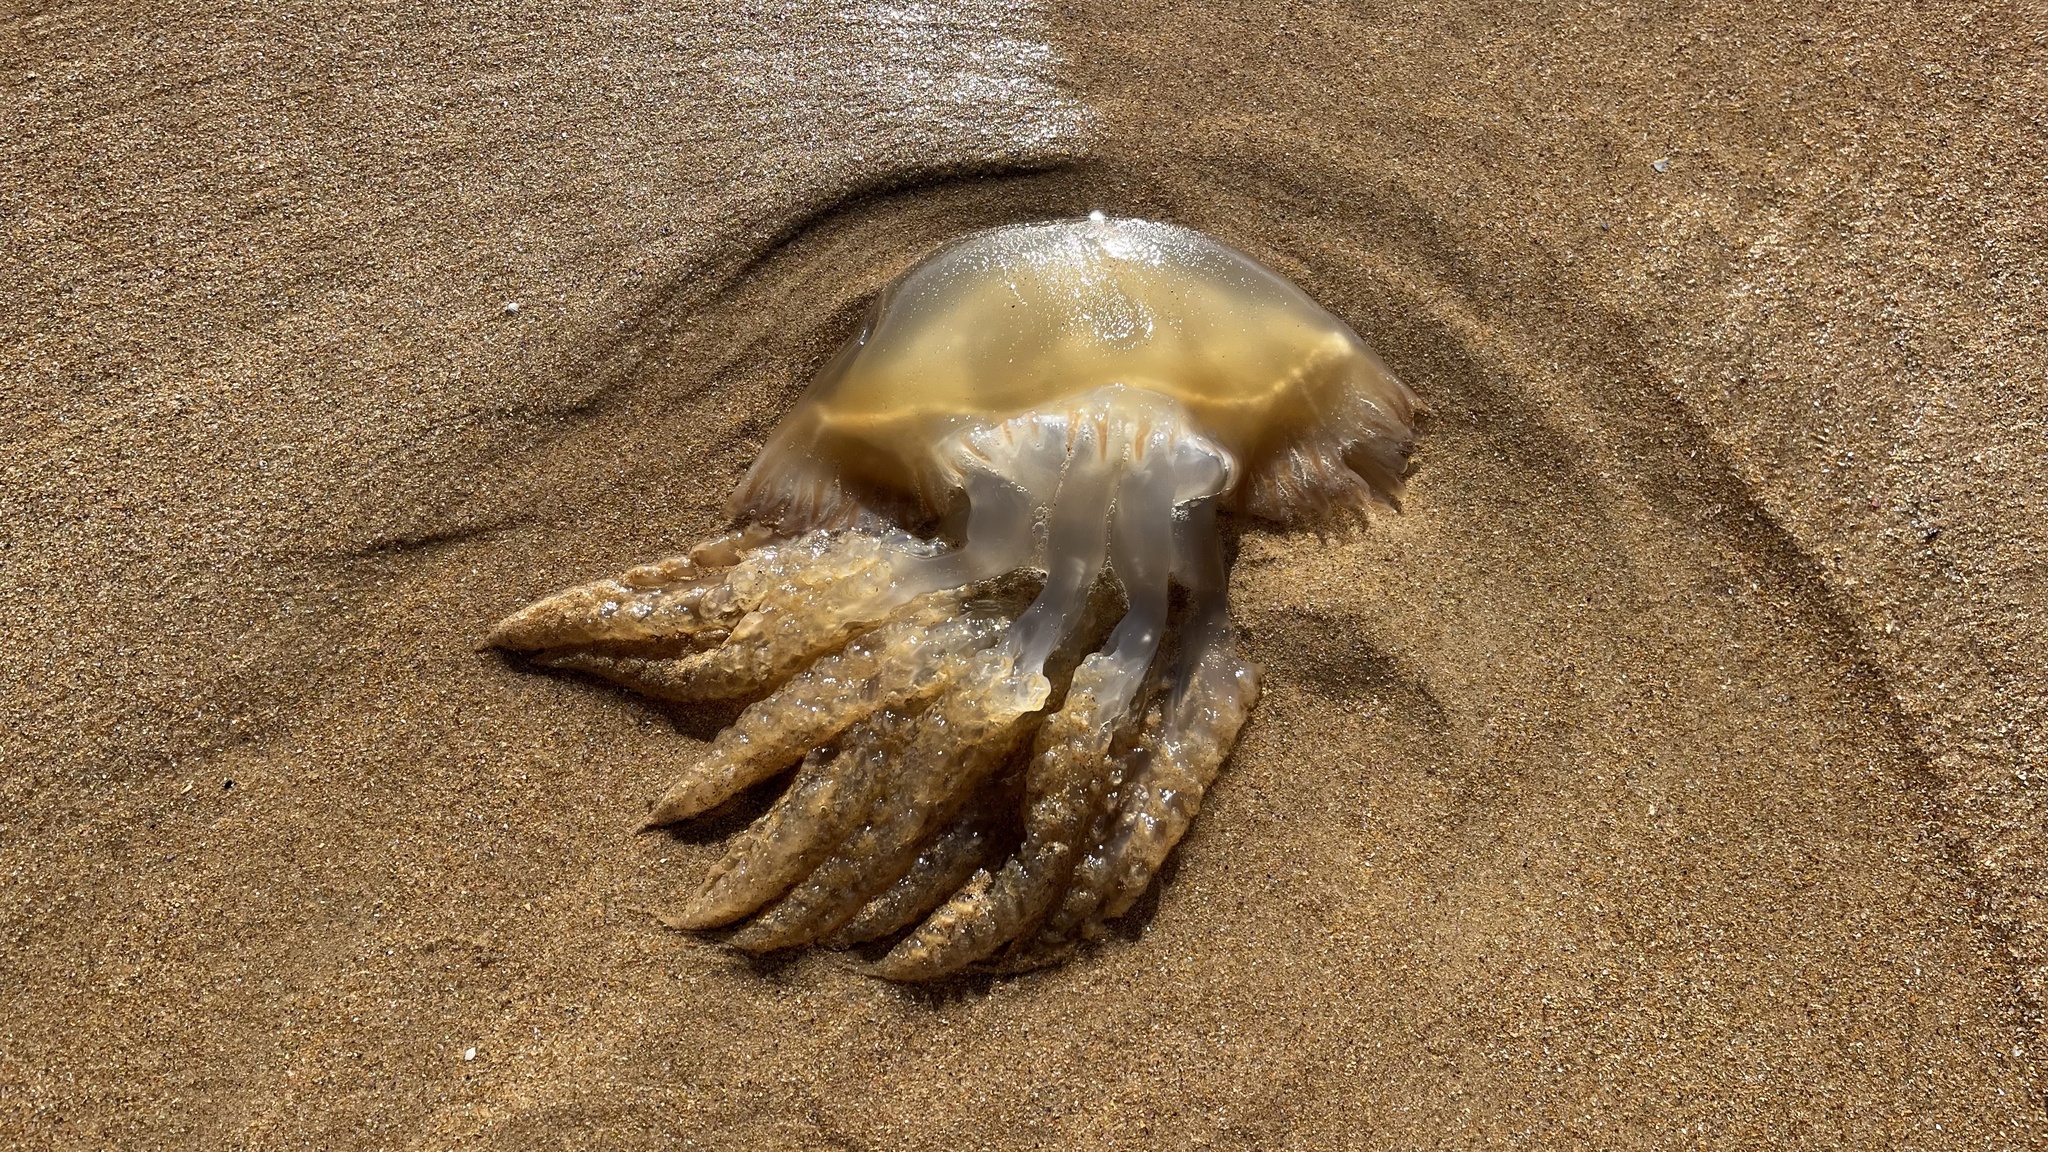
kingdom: Animalia
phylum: Cnidaria
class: Scyphozoa
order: Rhizostomeae
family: Catostylidae
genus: Catostylus
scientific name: Catostylus tagi
